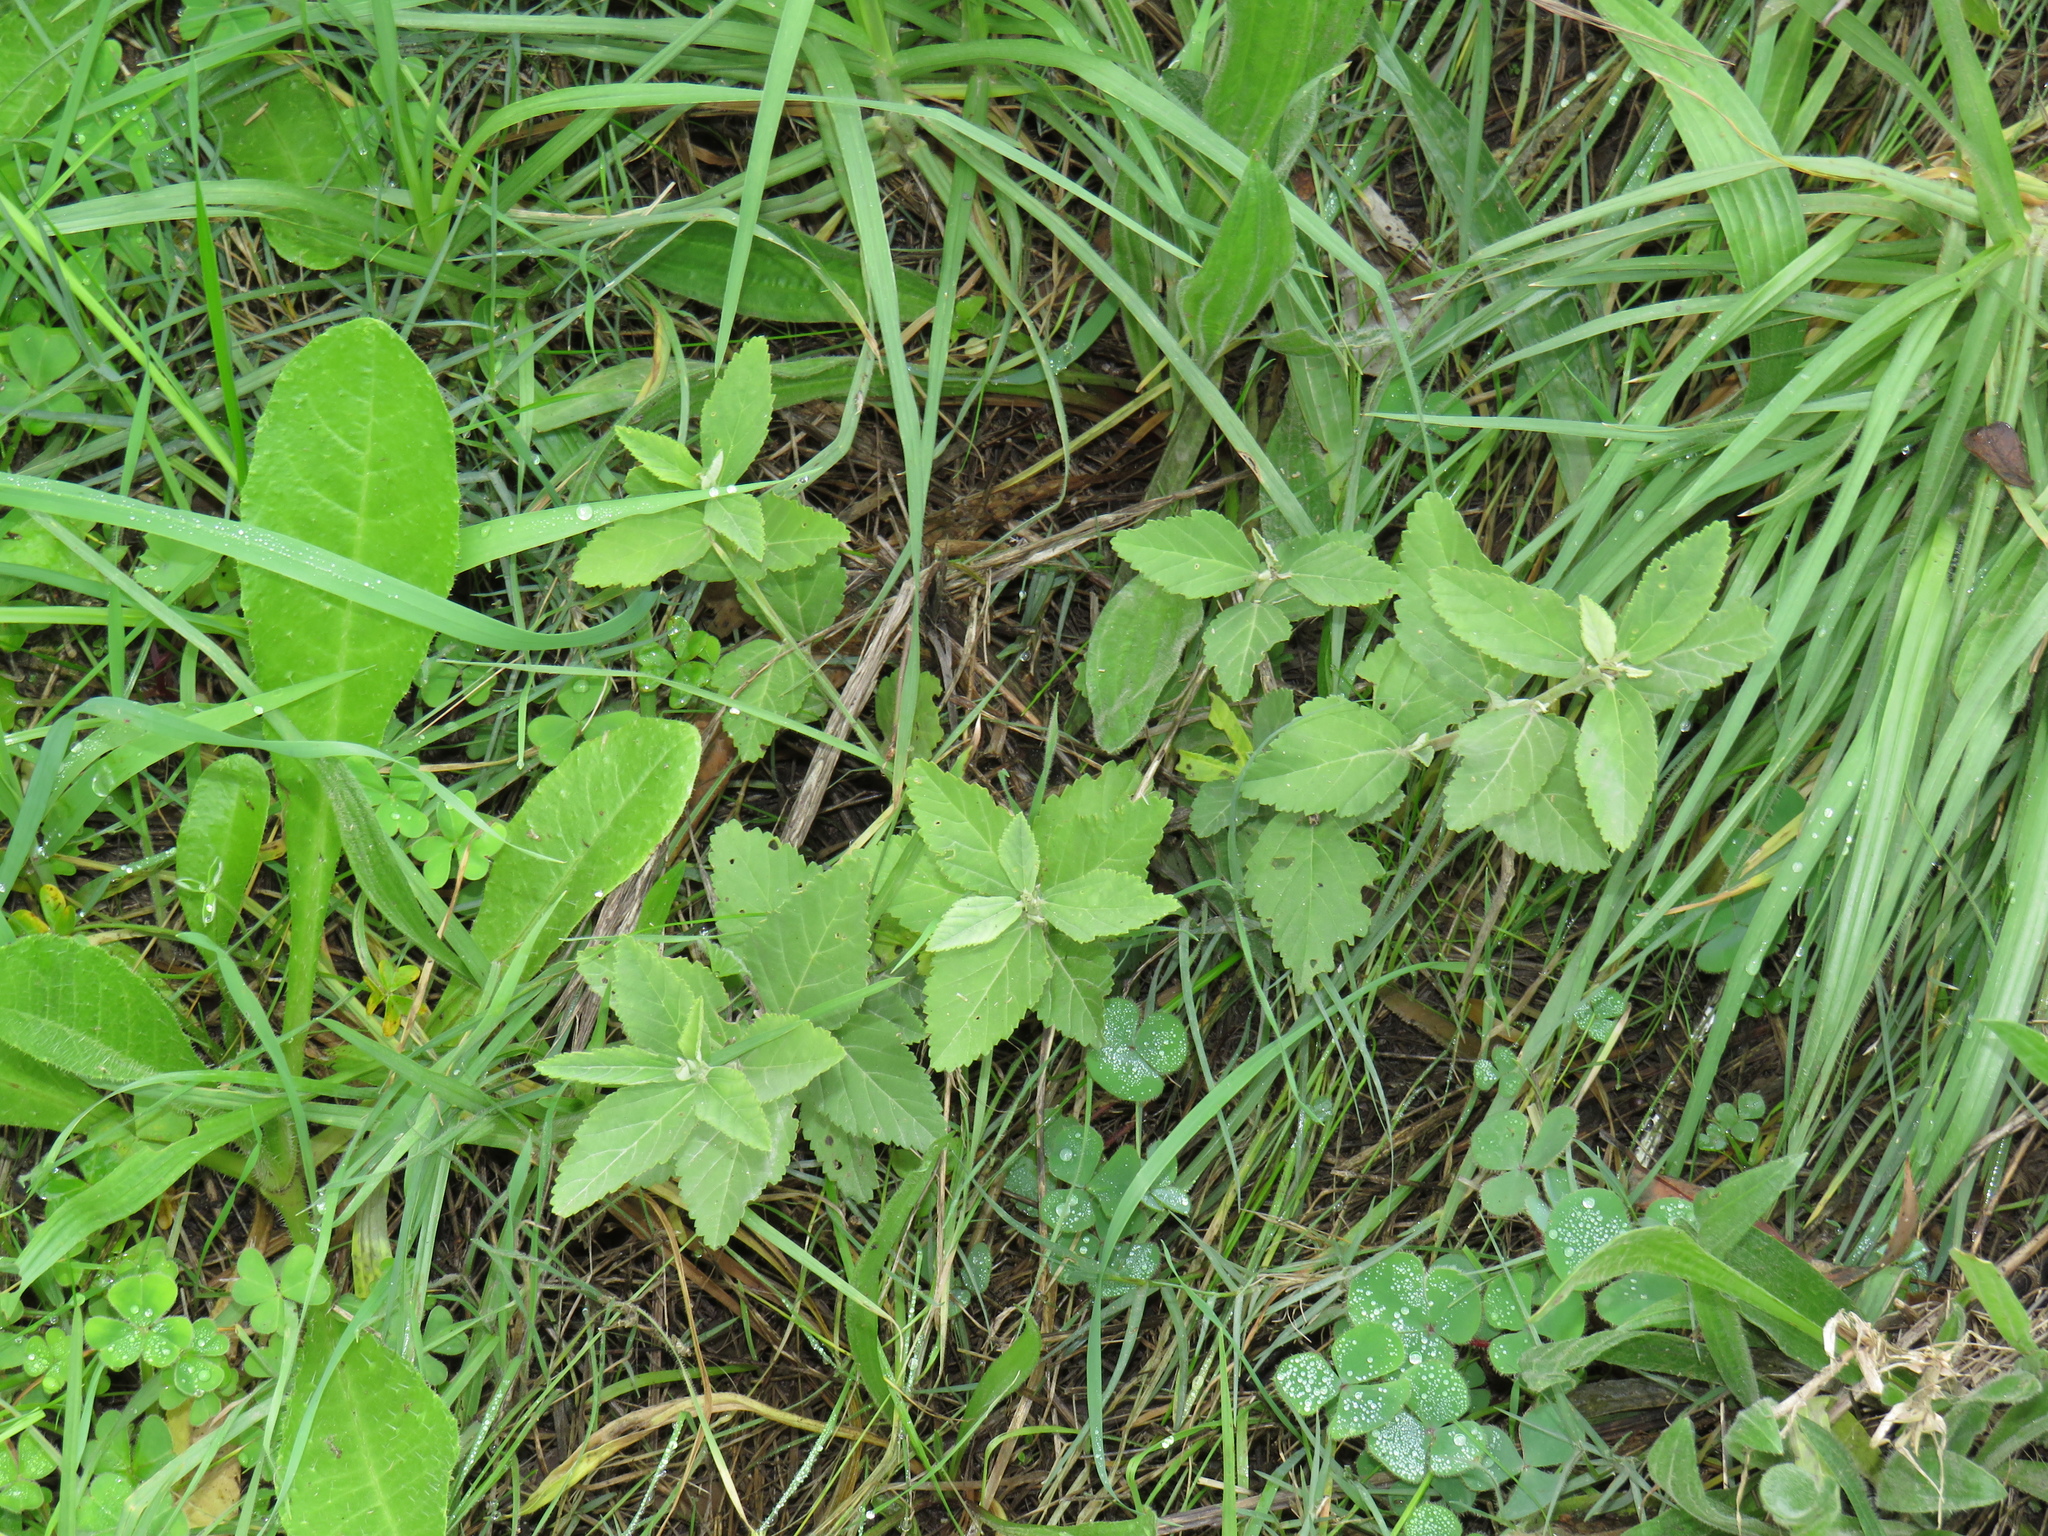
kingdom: Plantae
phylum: Tracheophyta
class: Magnoliopsida
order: Malvales
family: Malvaceae
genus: Sida
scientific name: Sida rhombifolia
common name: Queensland-hemp
